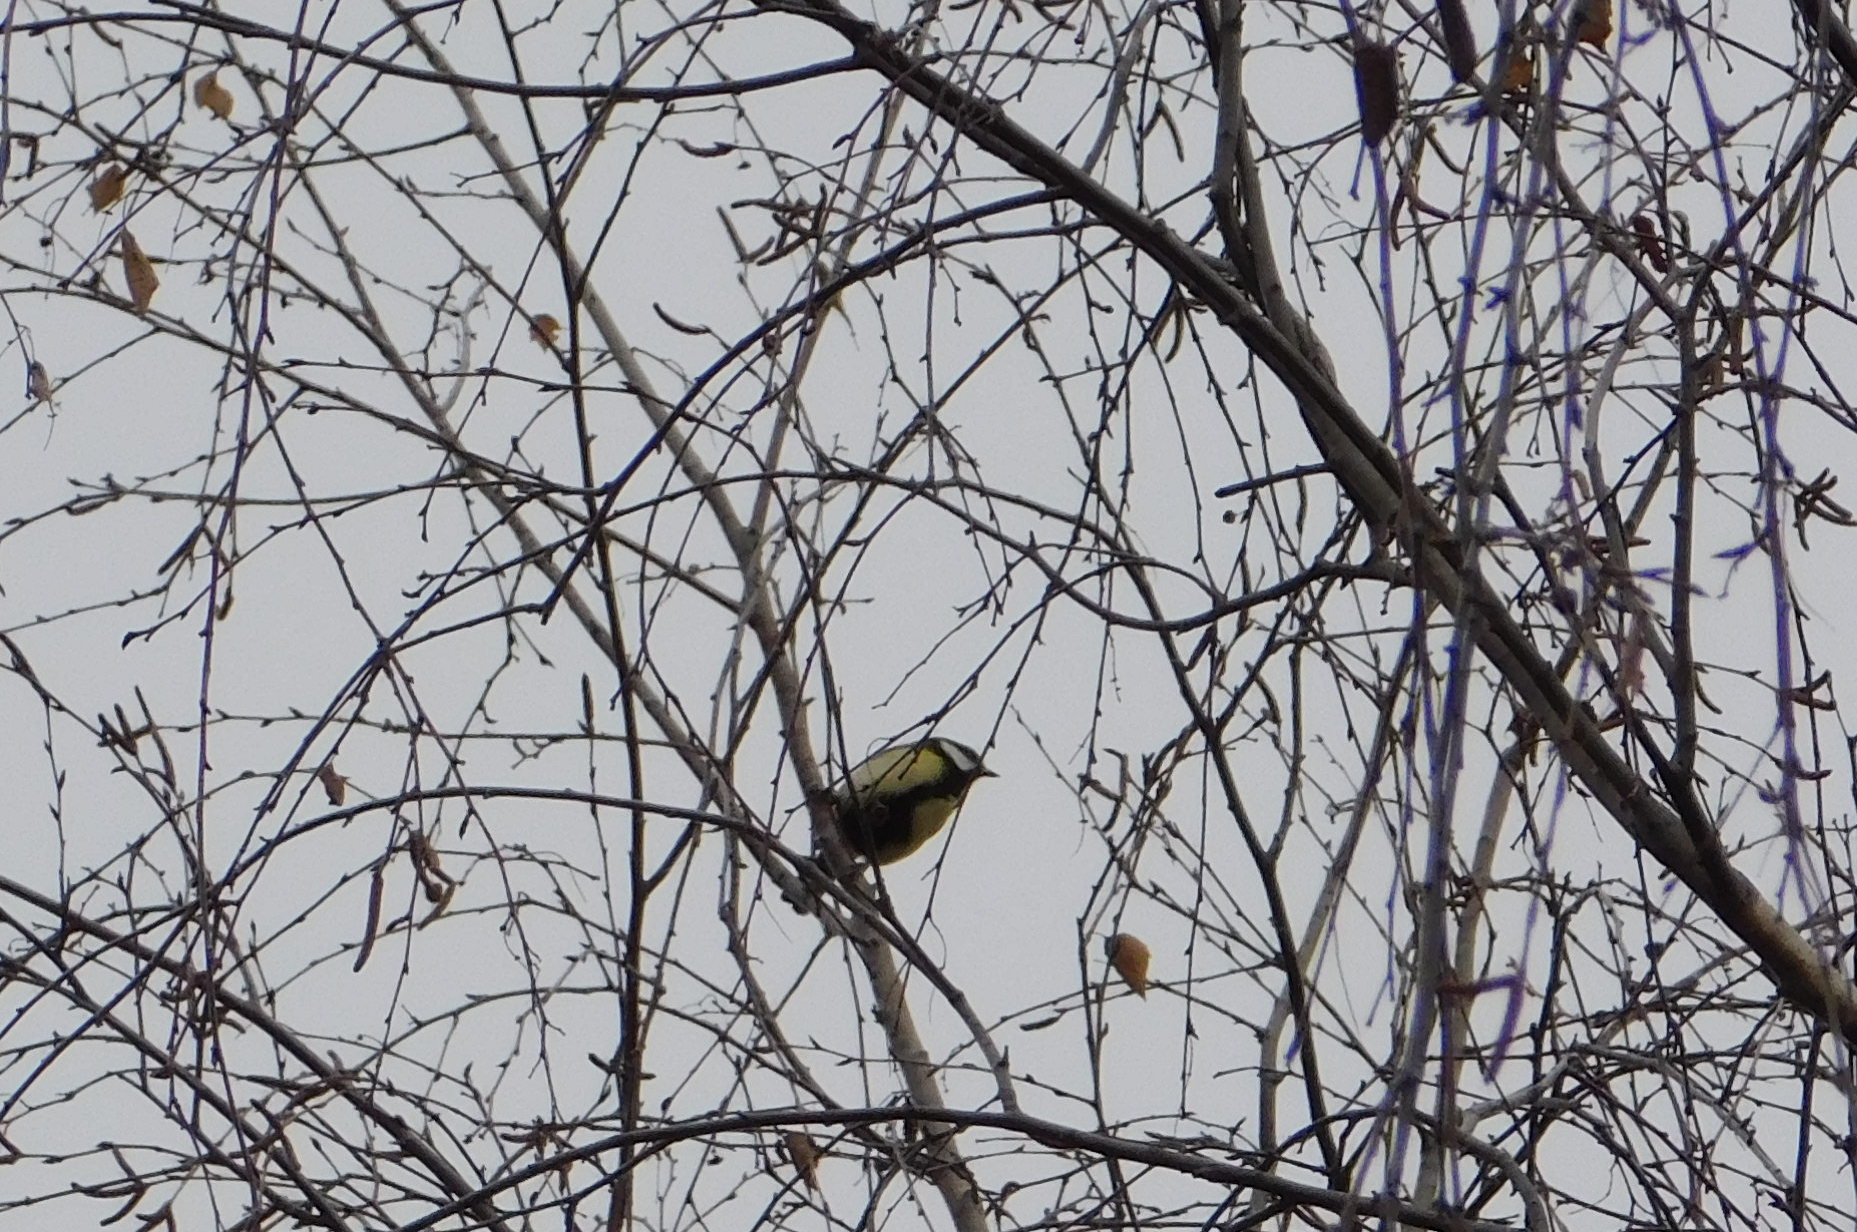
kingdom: Animalia
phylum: Chordata
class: Aves
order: Passeriformes
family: Paridae
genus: Parus
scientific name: Parus major
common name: Great tit
